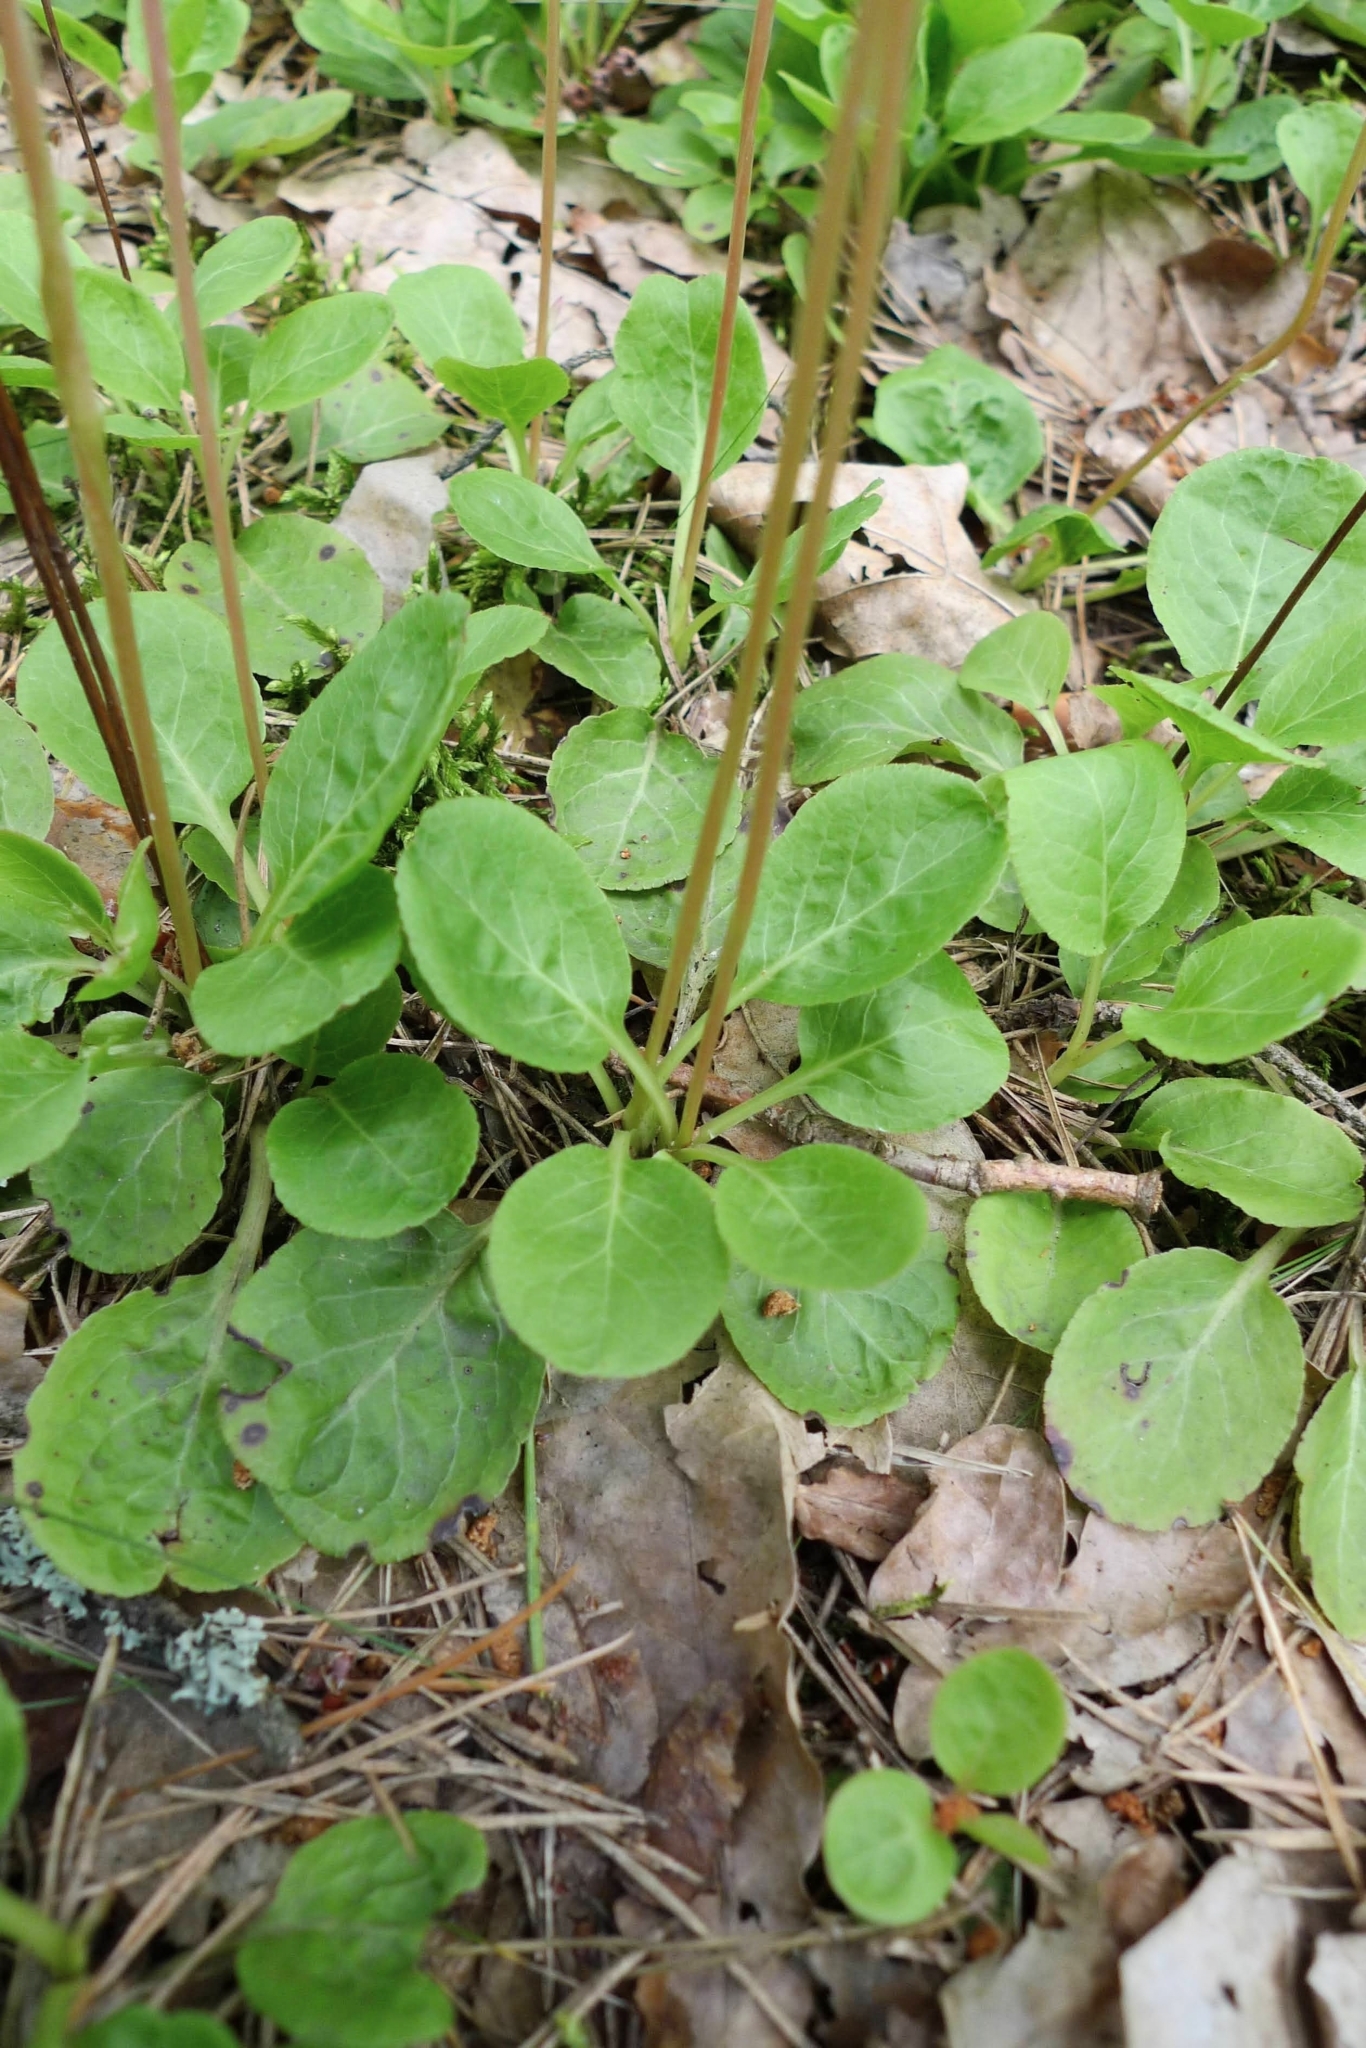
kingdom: Plantae
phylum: Tracheophyta
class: Magnoliopsida
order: Ericales
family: Ericaceae
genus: Pyrola
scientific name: Pyrola minor
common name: Common wintergreen
